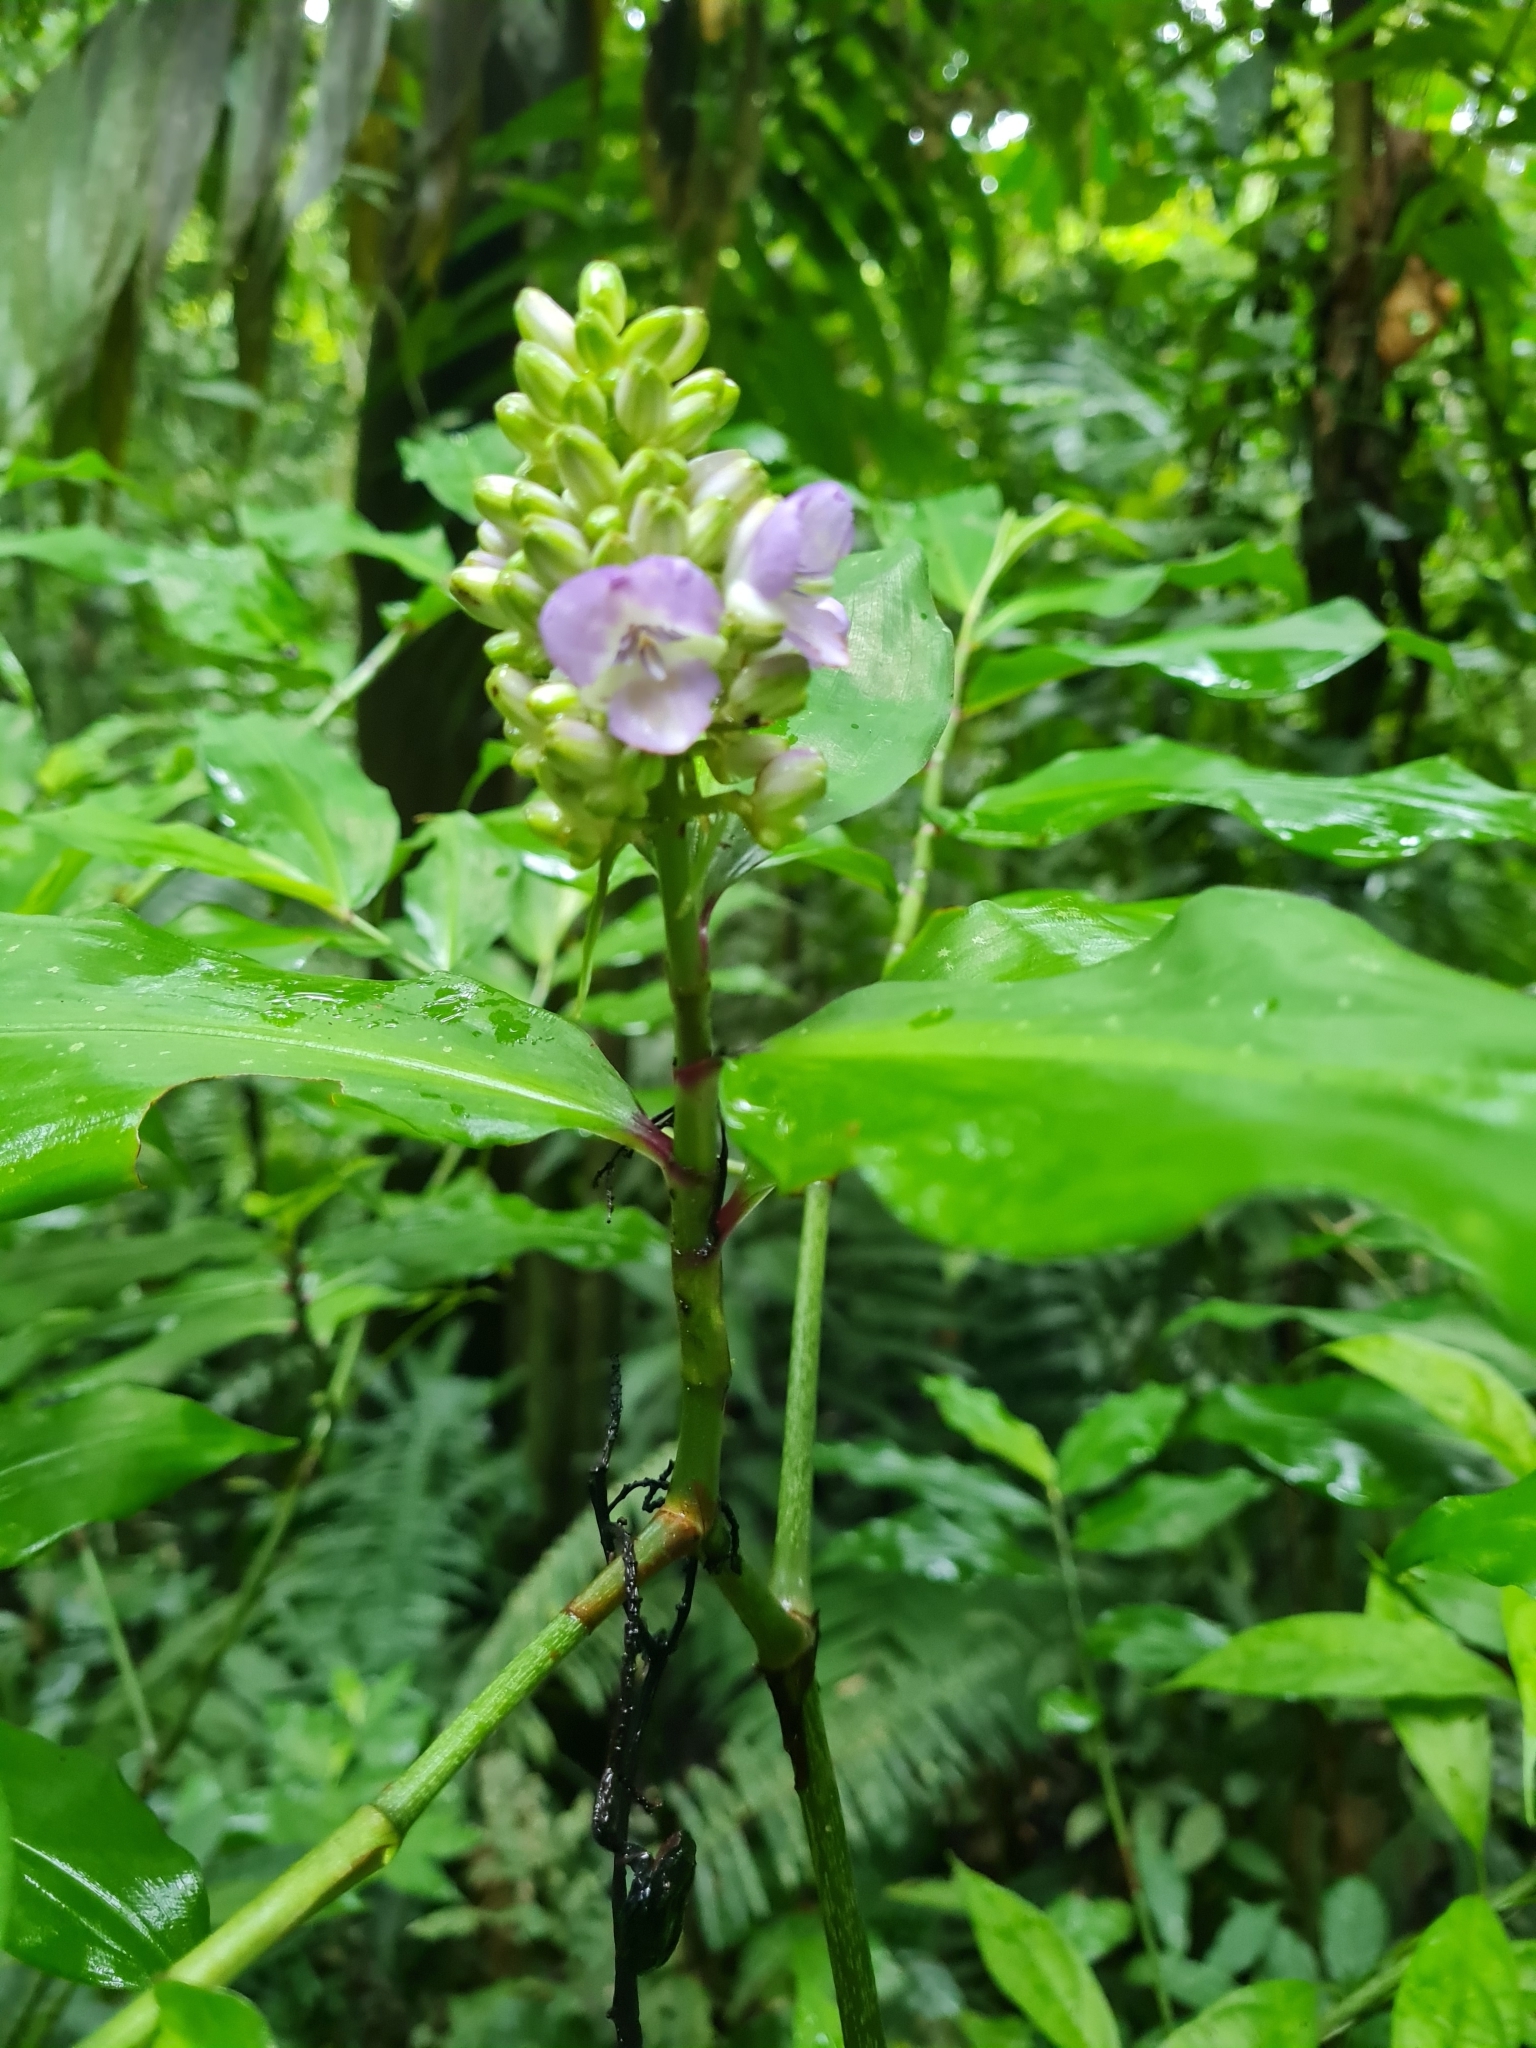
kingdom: Plantae
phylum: Tracheophyta
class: Liliopsida
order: Commelinales
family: Commelinaceae
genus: Dichorisandra
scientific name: Dichorisandra hexandra
